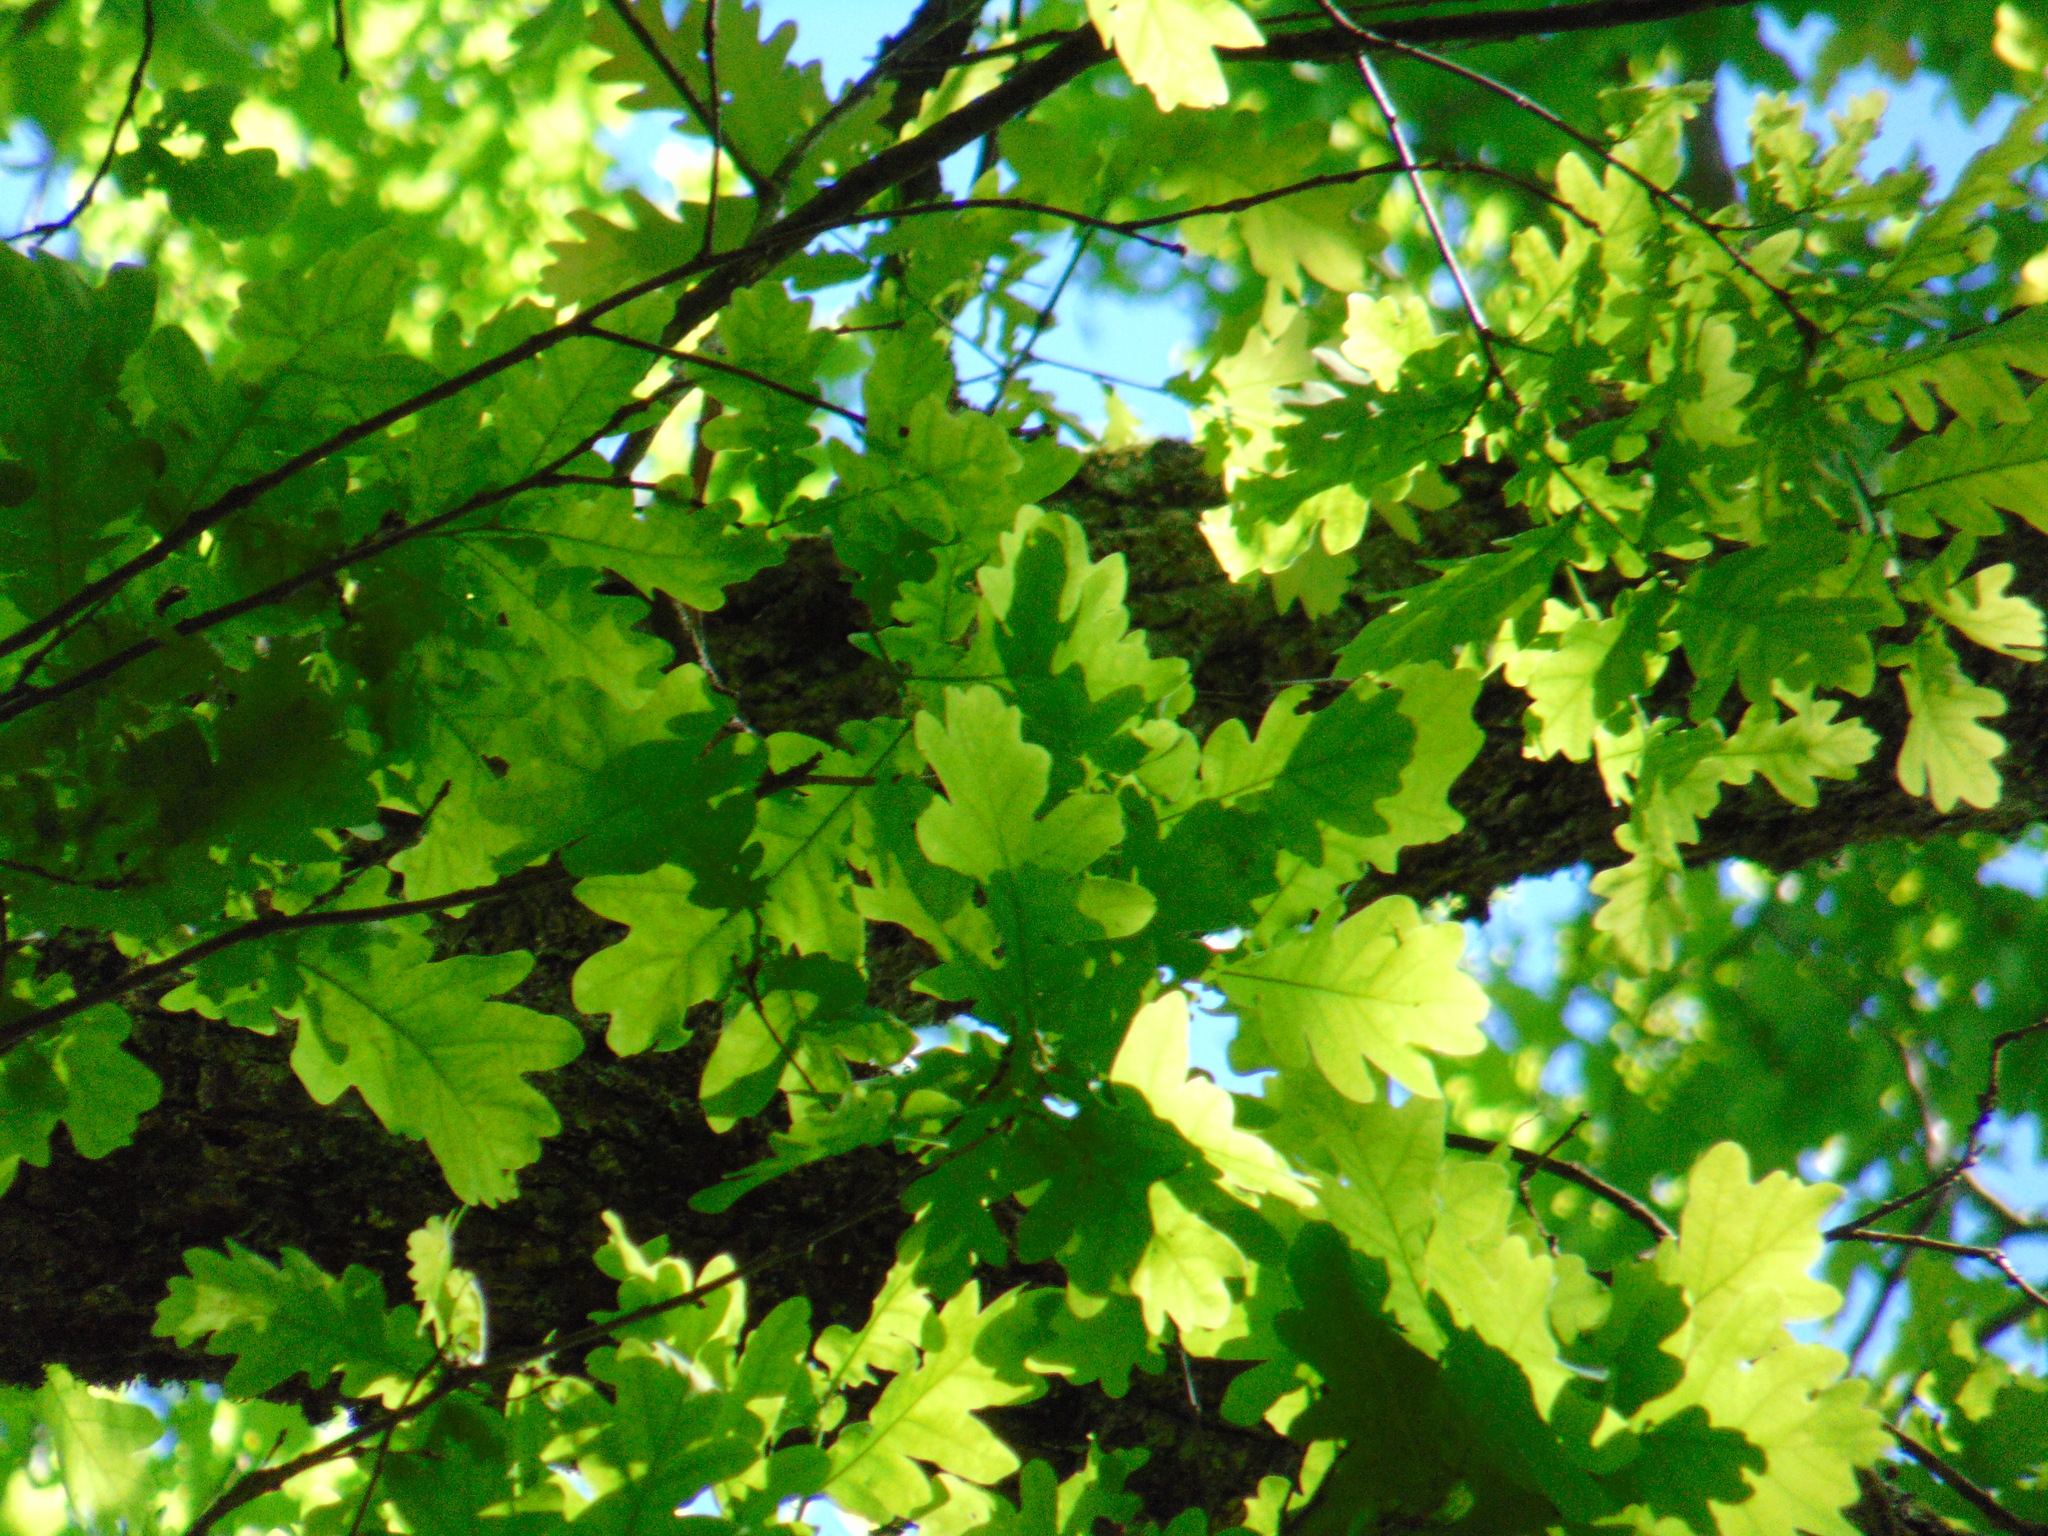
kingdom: Plantae
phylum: Tracheophyta
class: Magnoliopsida
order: Fagales
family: Fagaceae
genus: Quercus
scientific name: Quercus robur
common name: Pedunculate oak
